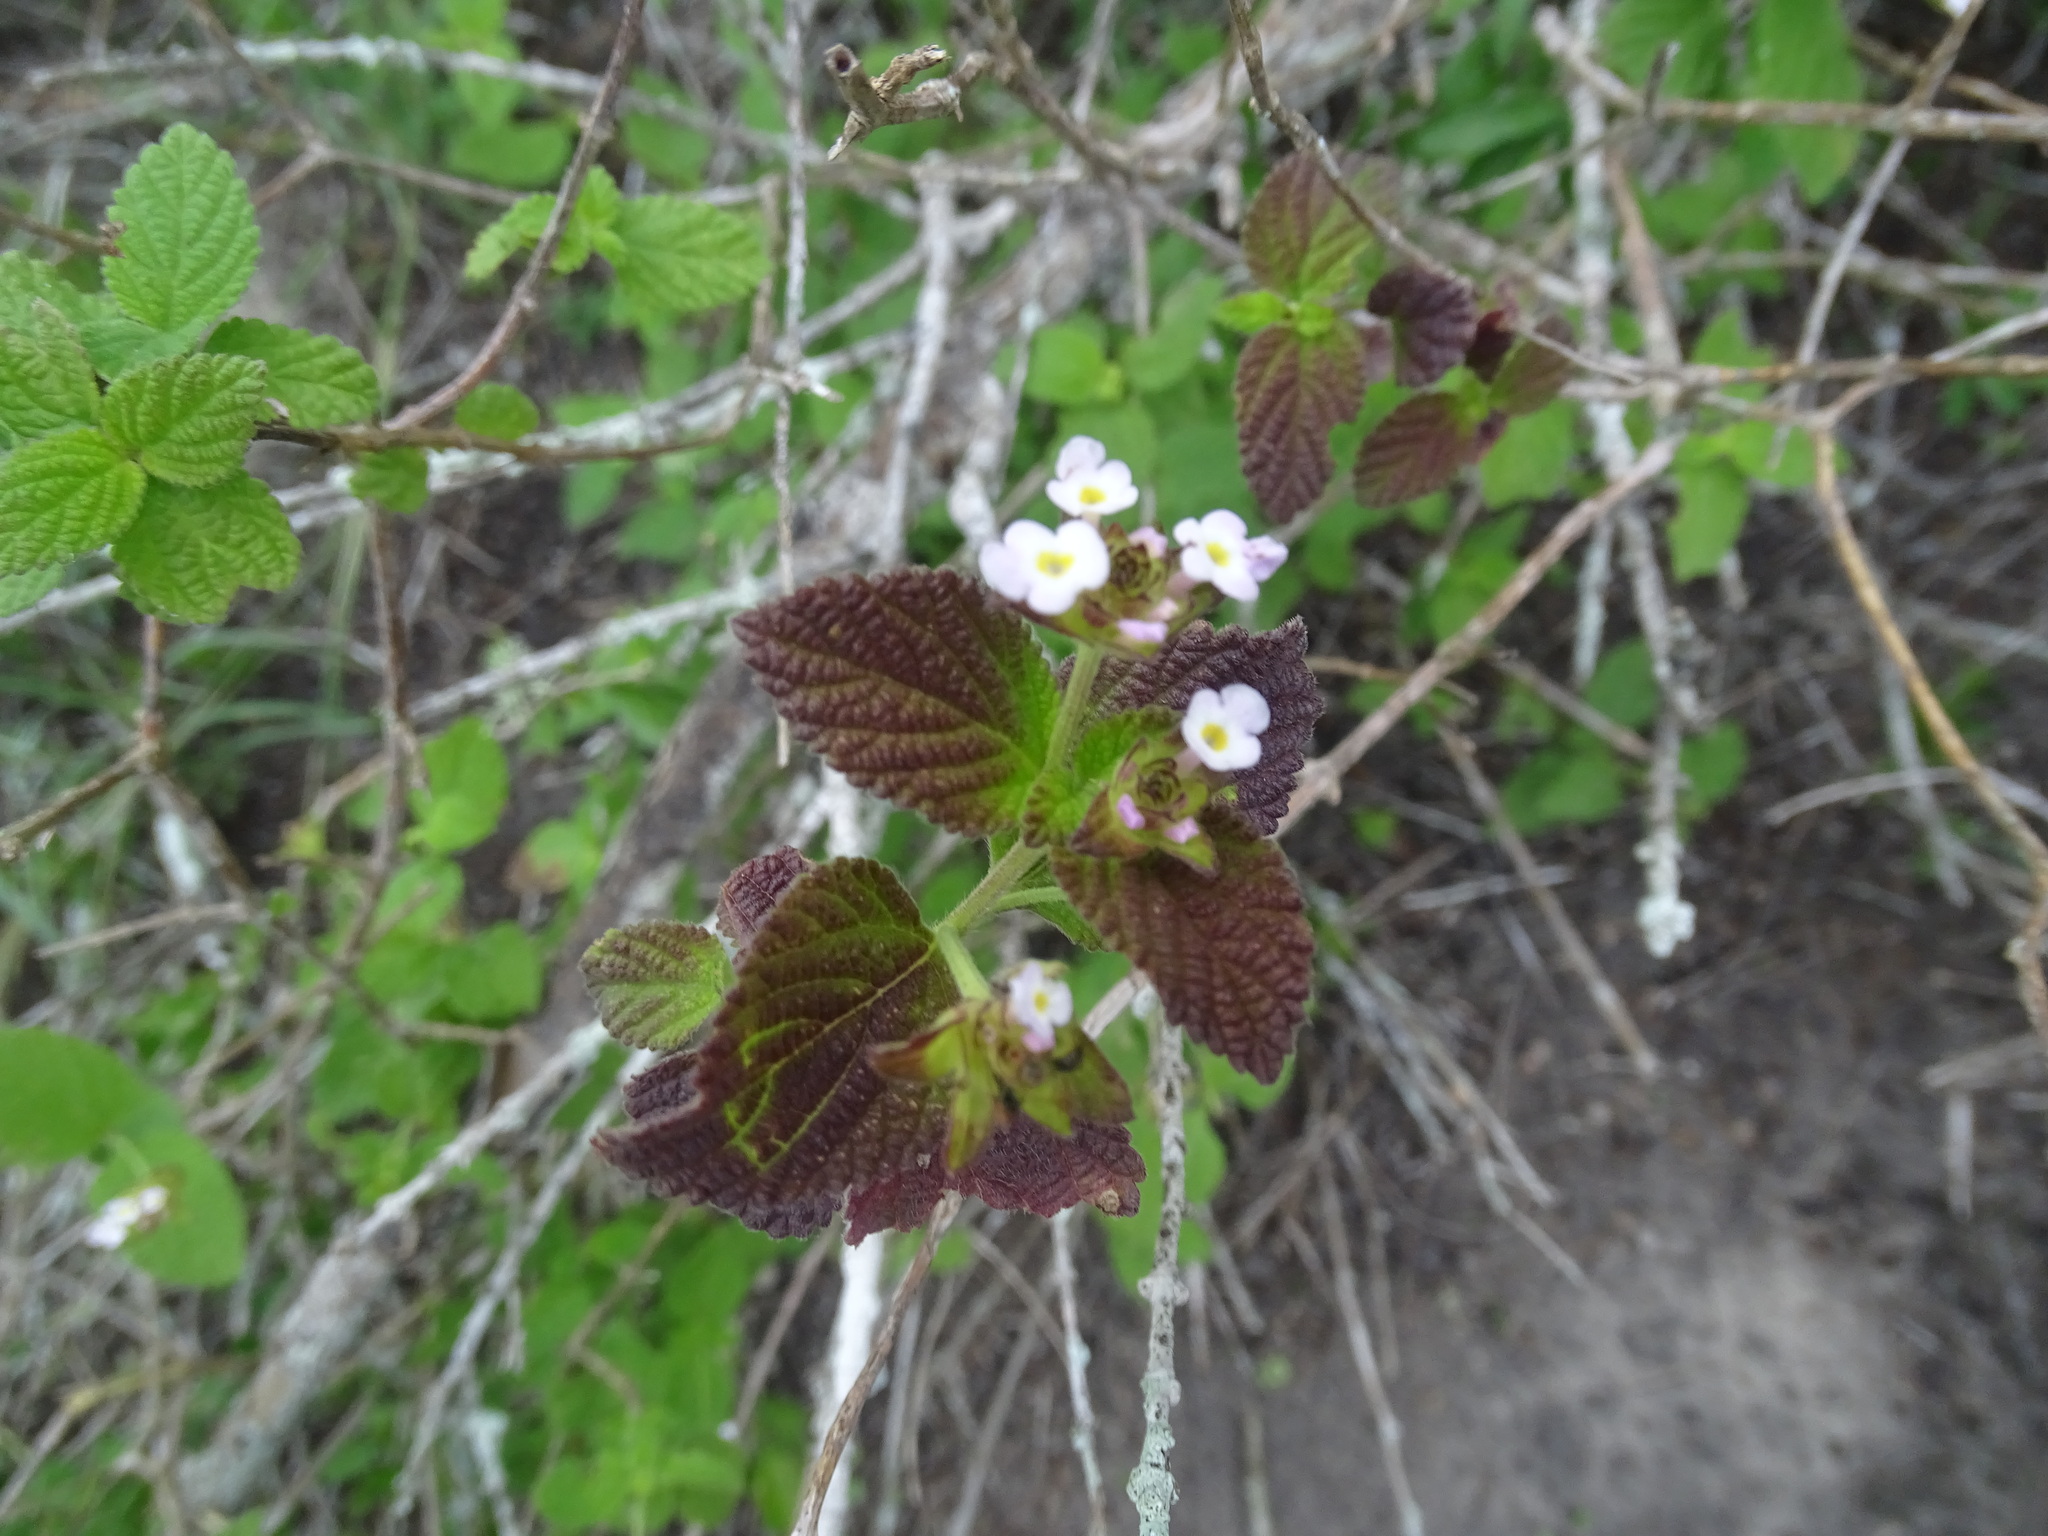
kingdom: Plantae
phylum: Tracheophyta
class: Magnoliopsida
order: Lamiales
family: Verbenaceae
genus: Lantana
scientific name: Lantana velutina
